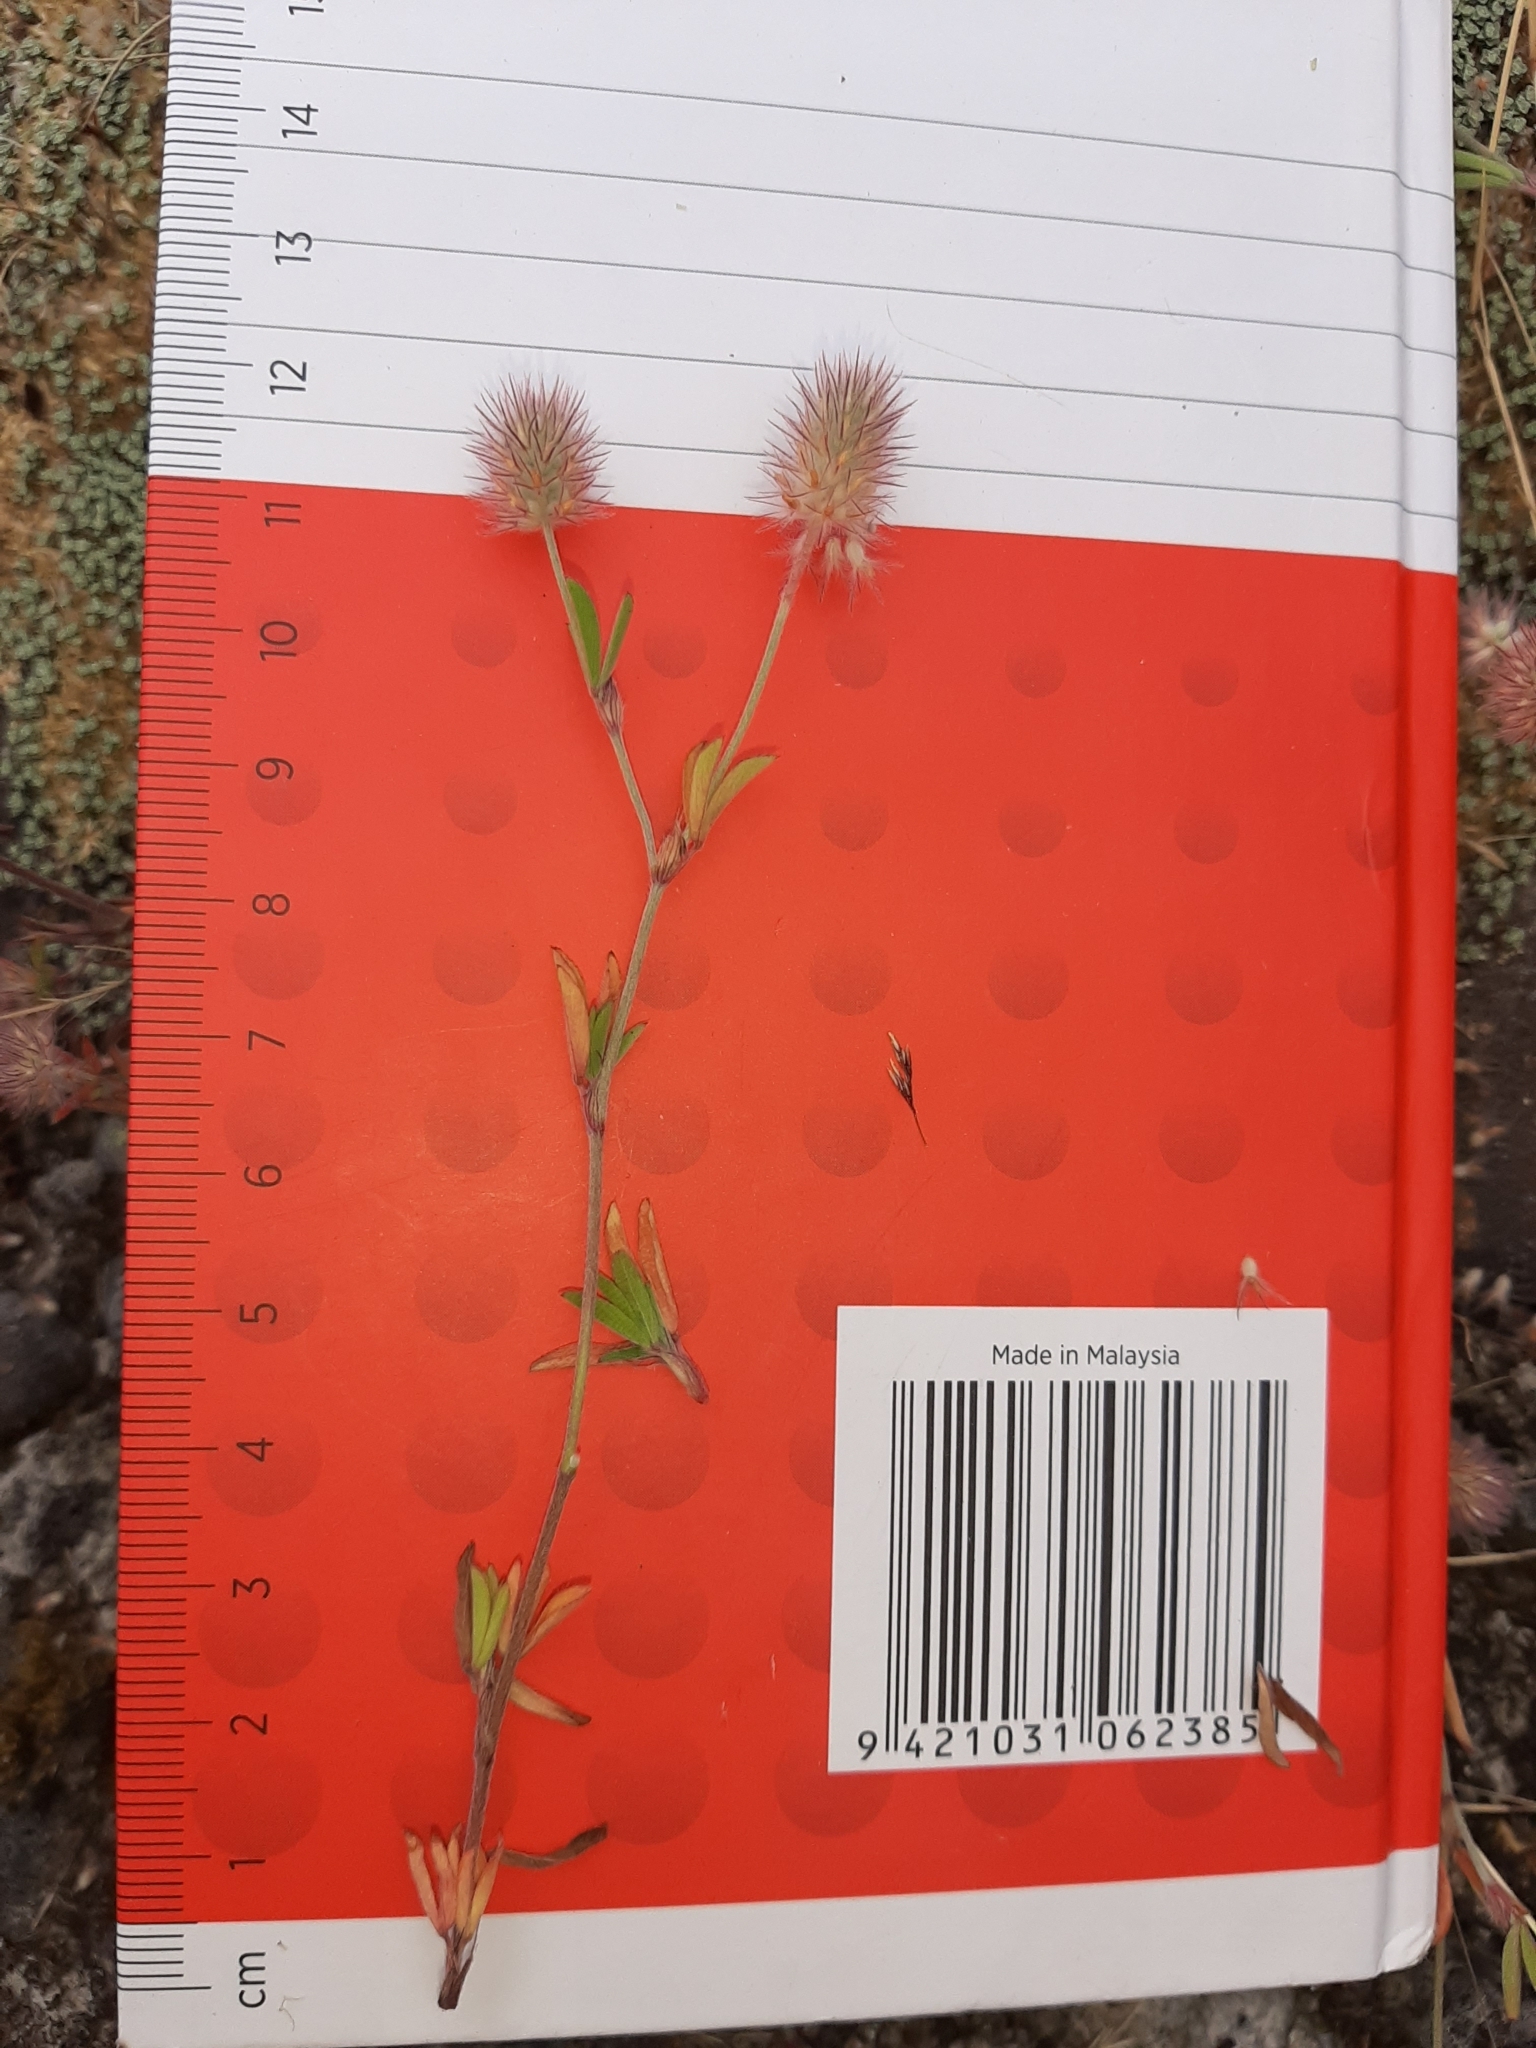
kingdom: Plantae
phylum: Tracheophyta
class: Magnoliopsida
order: Fabales
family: Fabaceae
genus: Trifolium
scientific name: Trifolium arvense
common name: Hare's-foot clover
